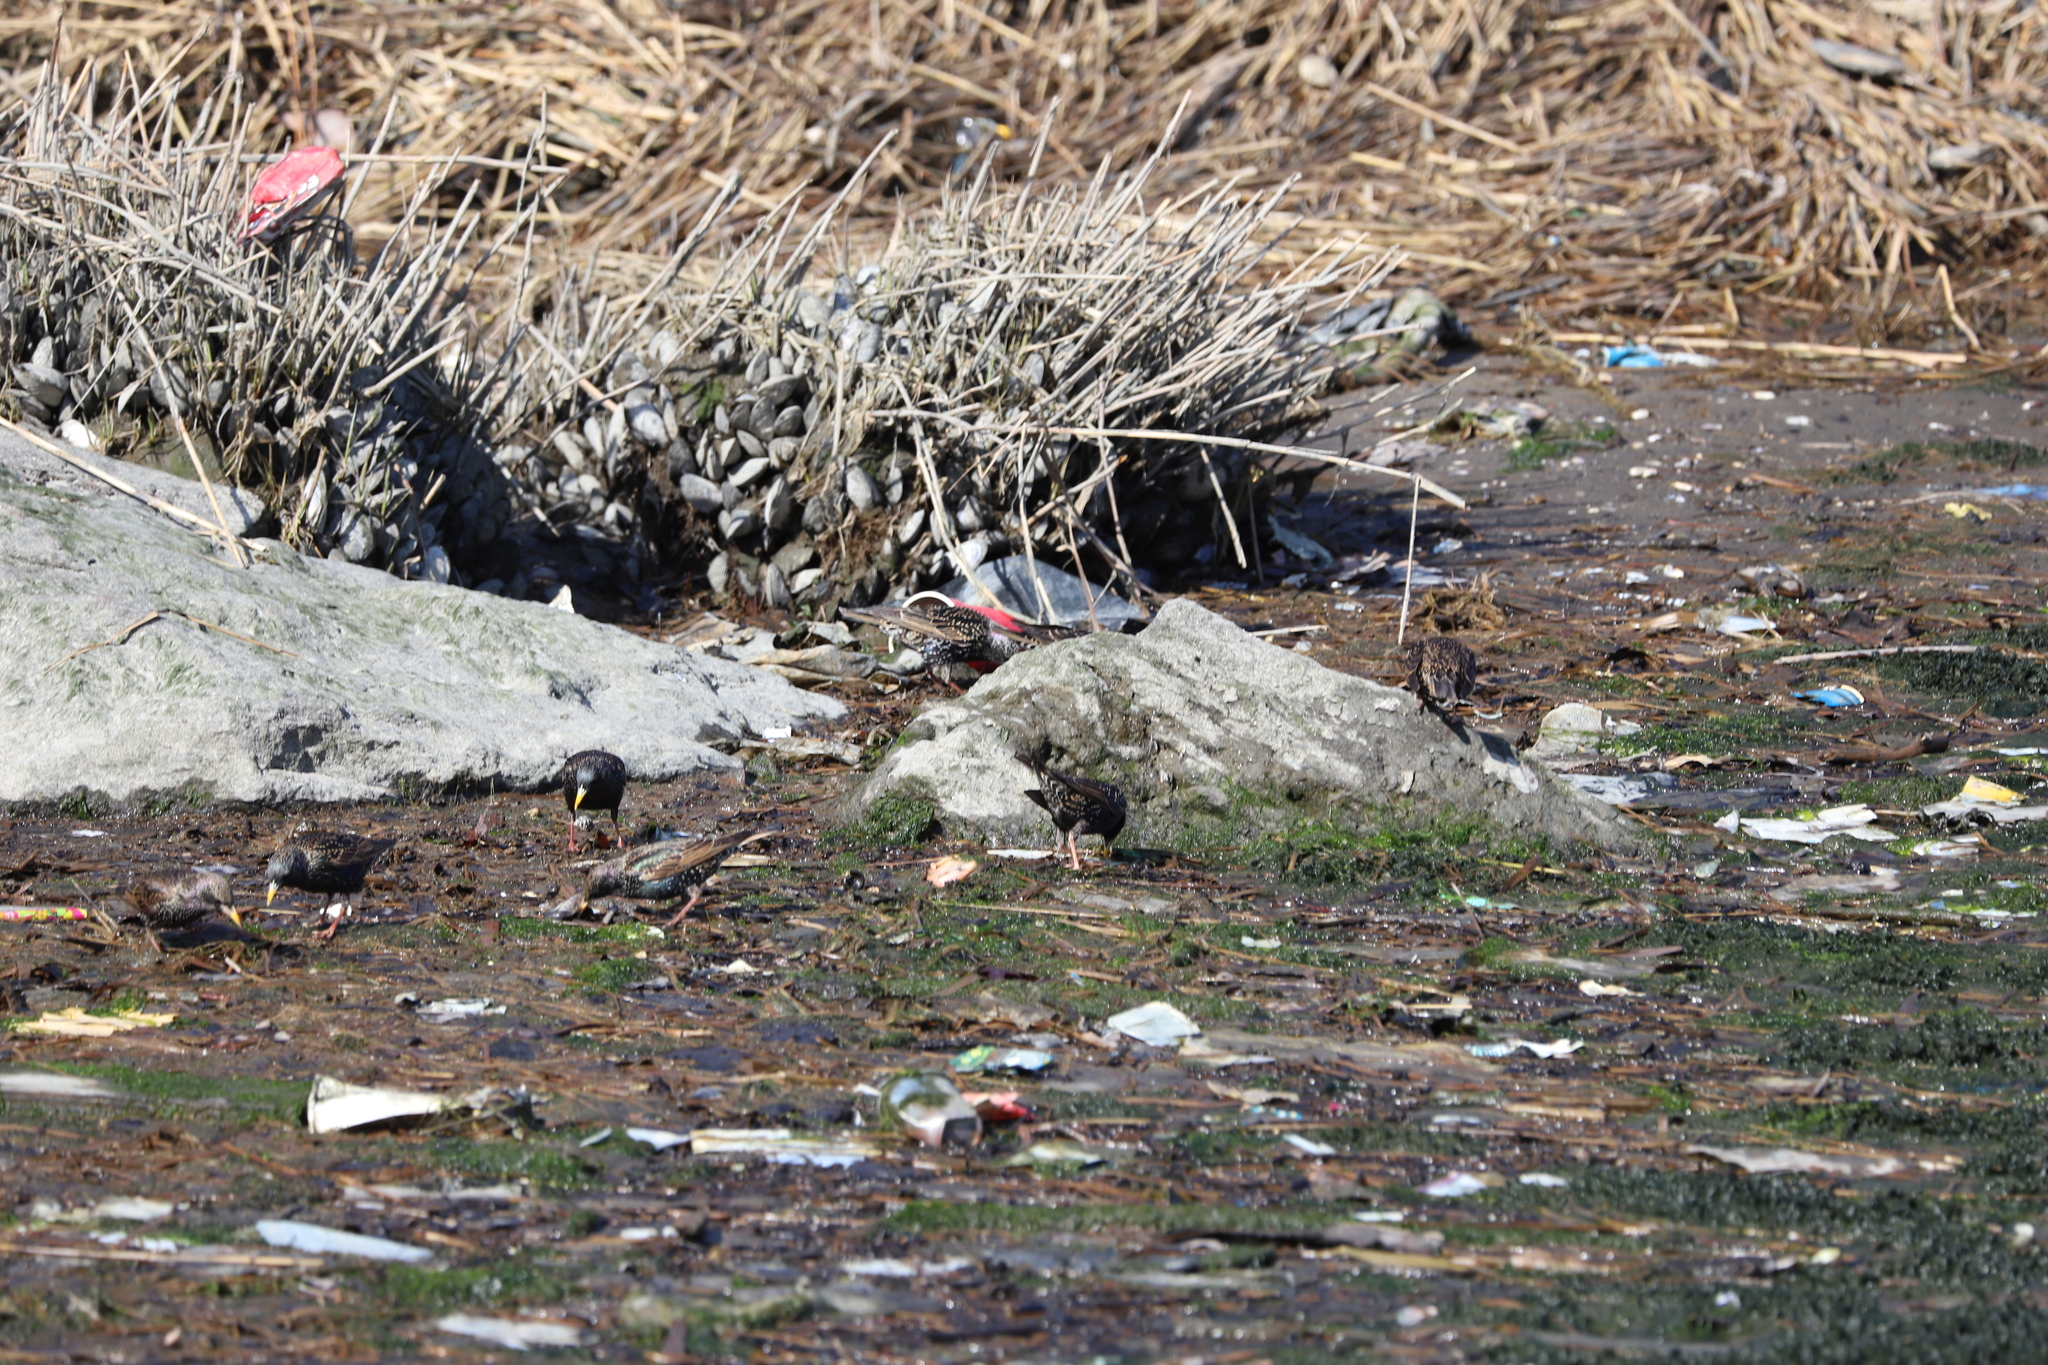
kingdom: Animalia
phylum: Chordata
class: Aves
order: Passeriformes
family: Sturnidae
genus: Sturnus
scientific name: Sturnus vulgaris
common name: Common starling
